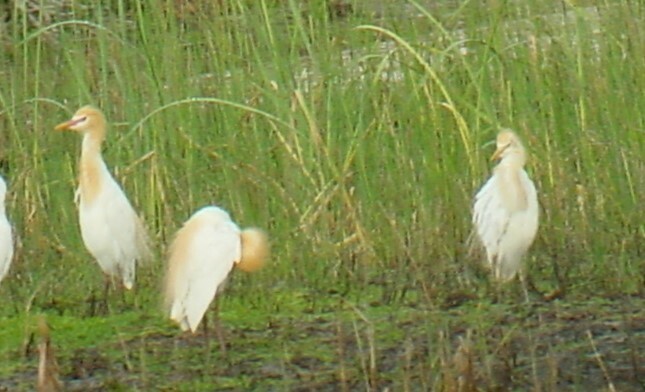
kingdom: Animalia
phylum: Chordata
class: Aves
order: Pelecaniformes
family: Ardeidae
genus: Bubulcus
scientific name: Bubulcus coromandus
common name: Eastern cattle egret
